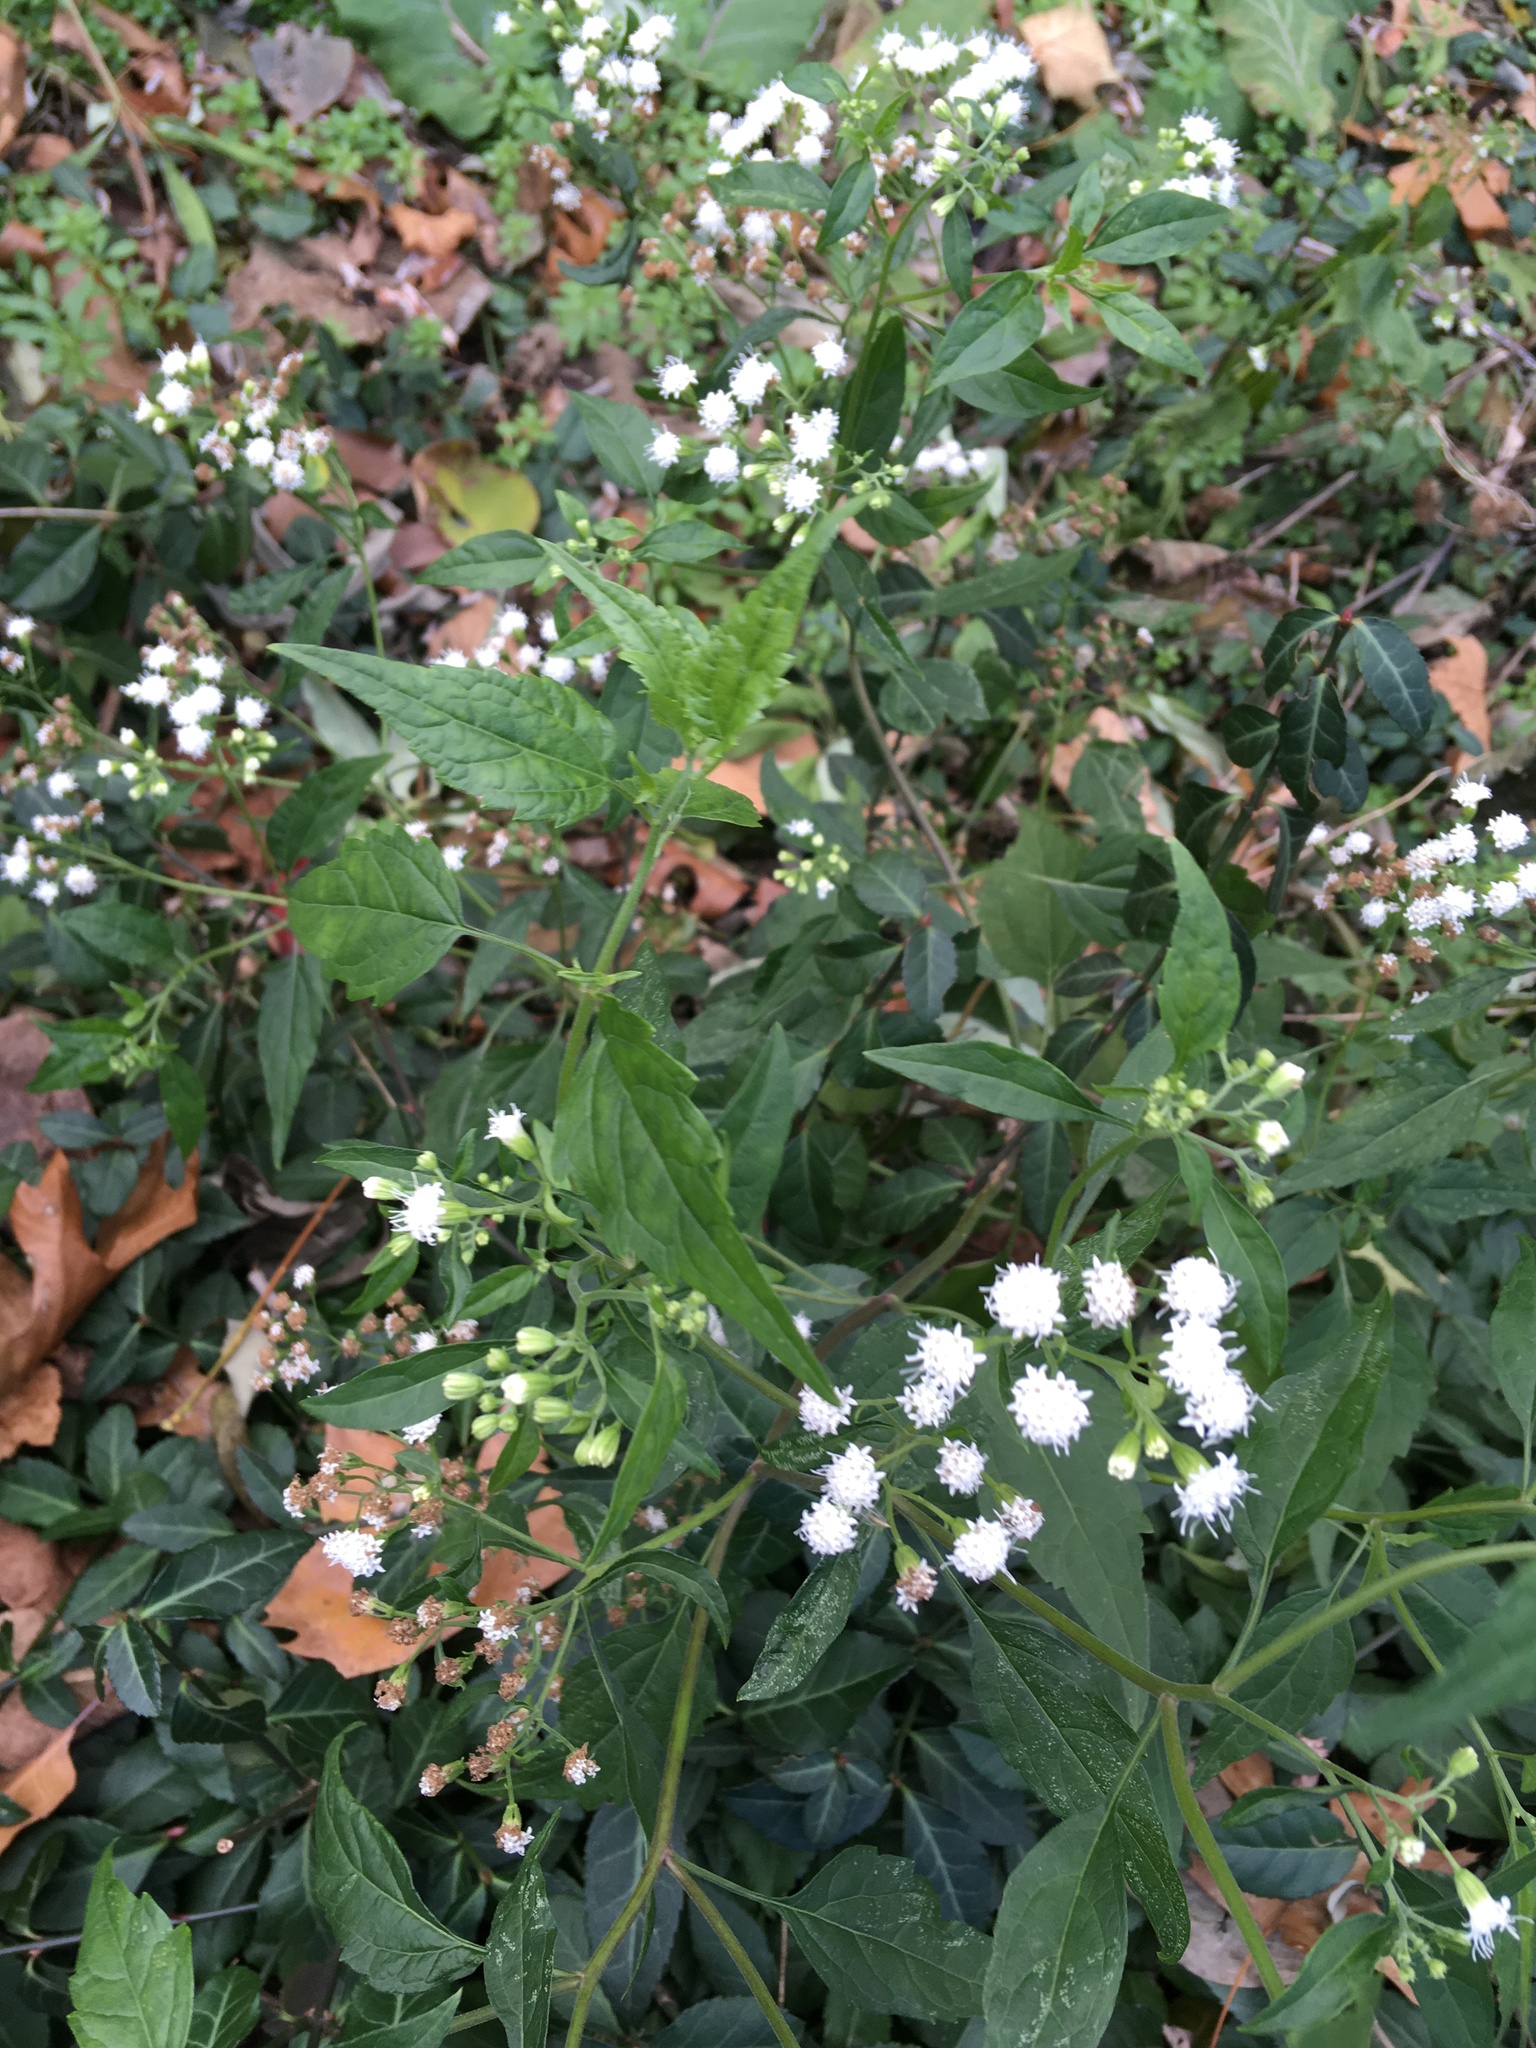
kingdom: Plantae
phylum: Tracheophyta
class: Magnoliopsida
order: Asterales
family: Asteraceae
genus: Ageratina
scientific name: Ageratina altissima
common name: White snakeroot
